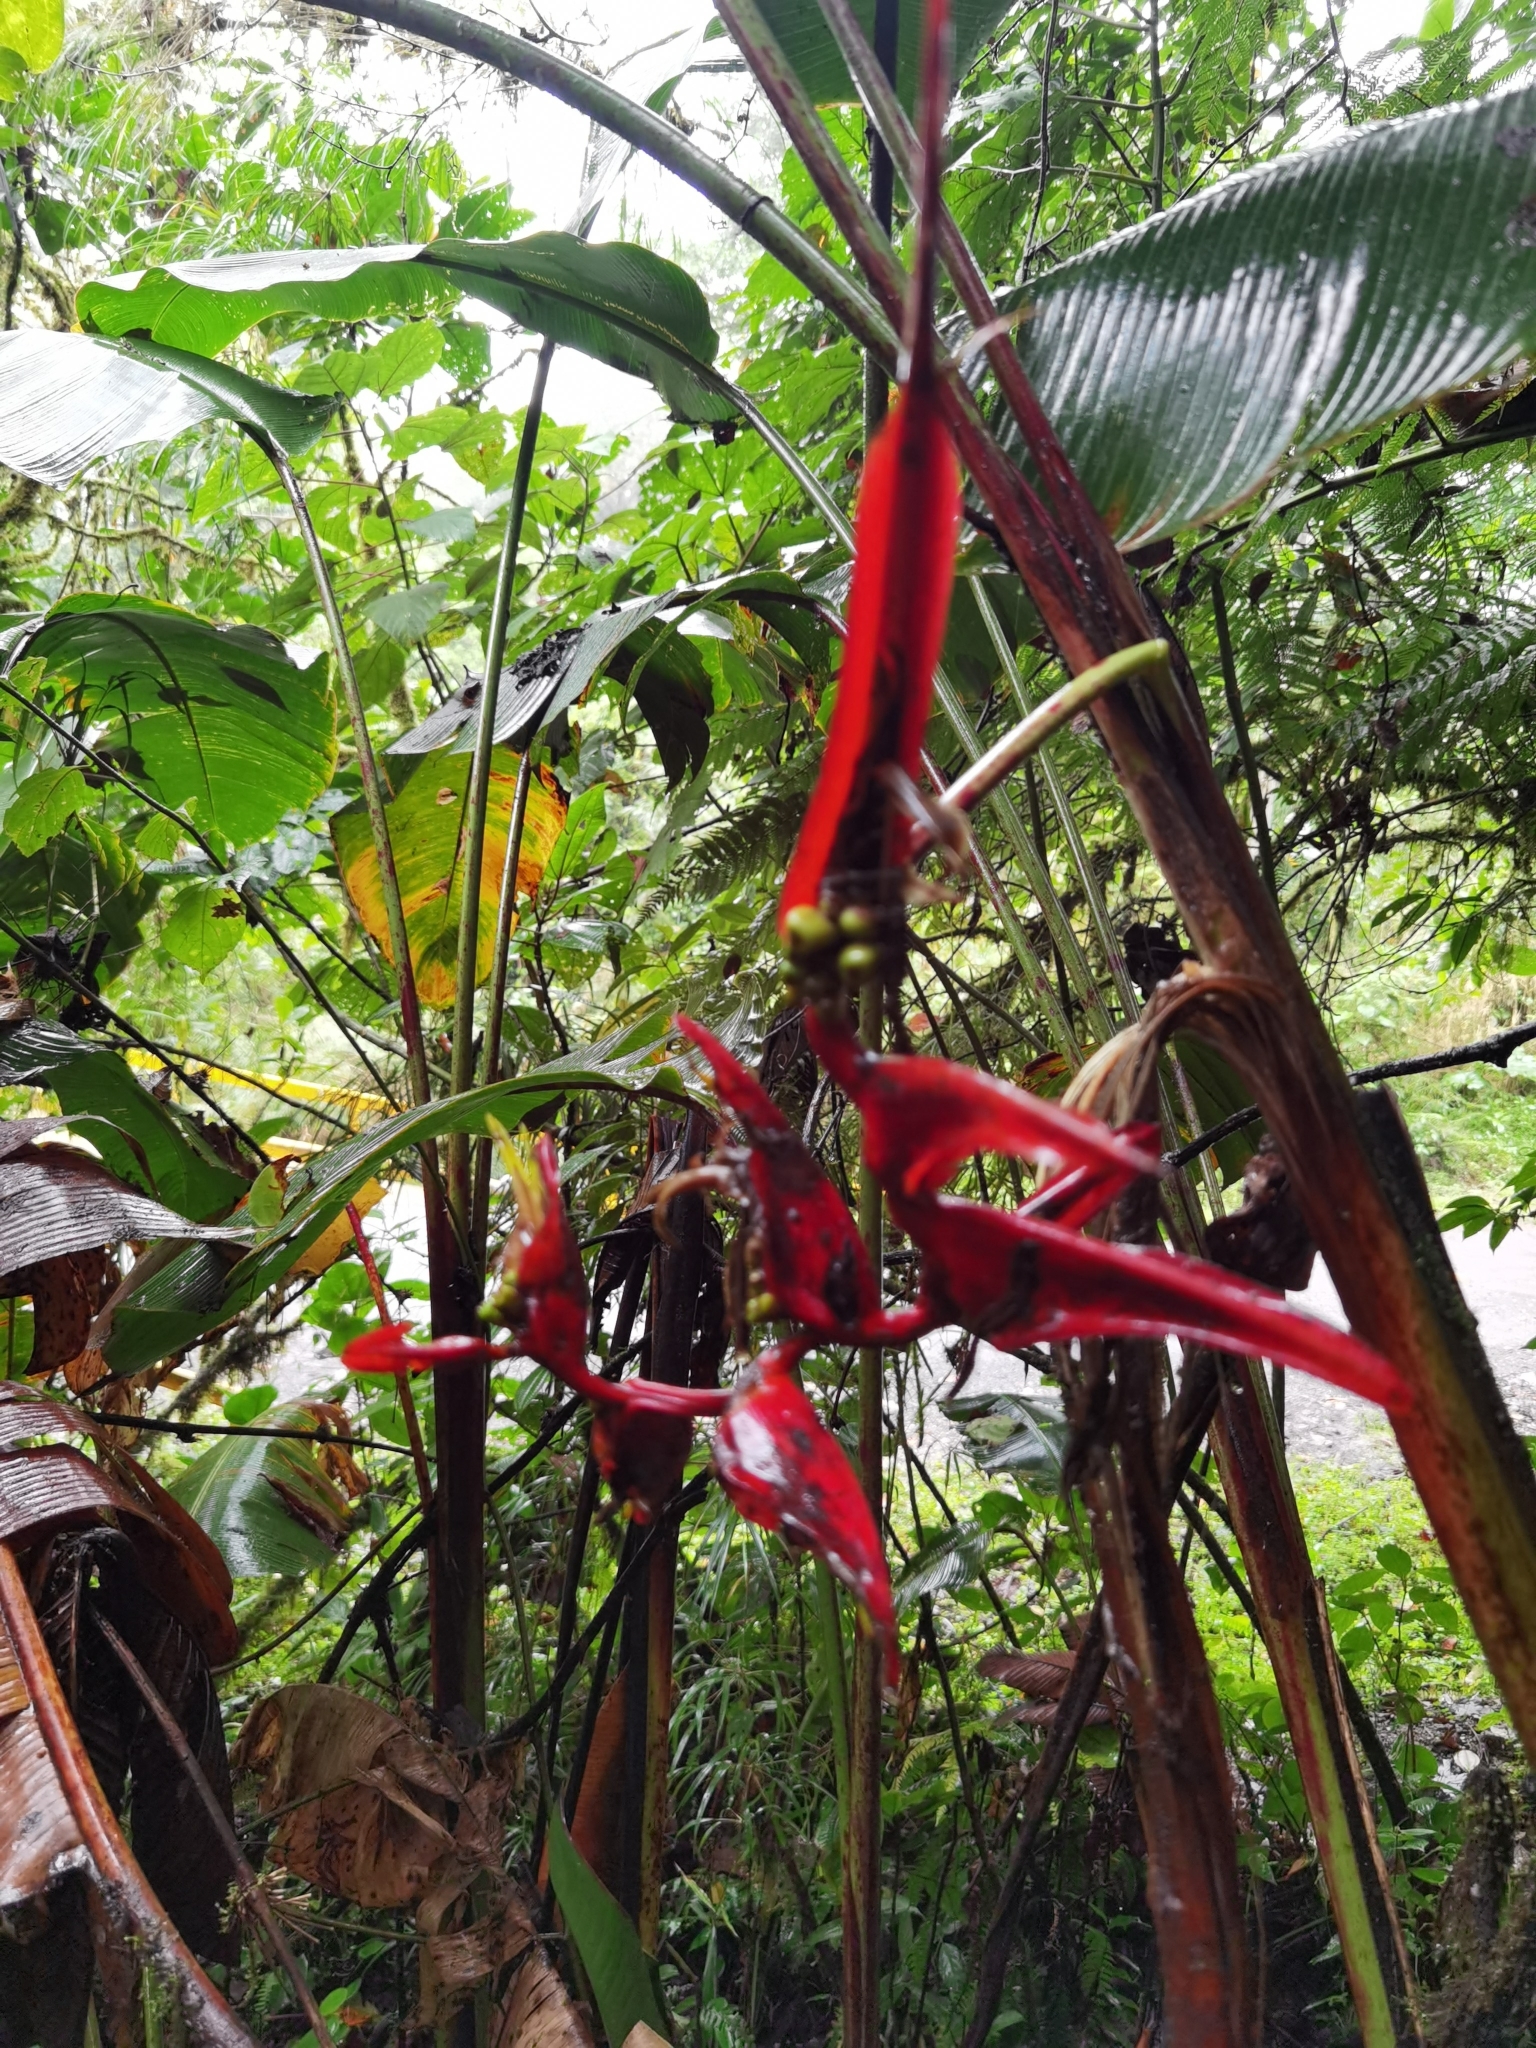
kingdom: Plantae
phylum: Tracheophyta
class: Liliopsida
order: Zingiberales
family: Heliconiaceae
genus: Heliconia
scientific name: Heliconia secunda
